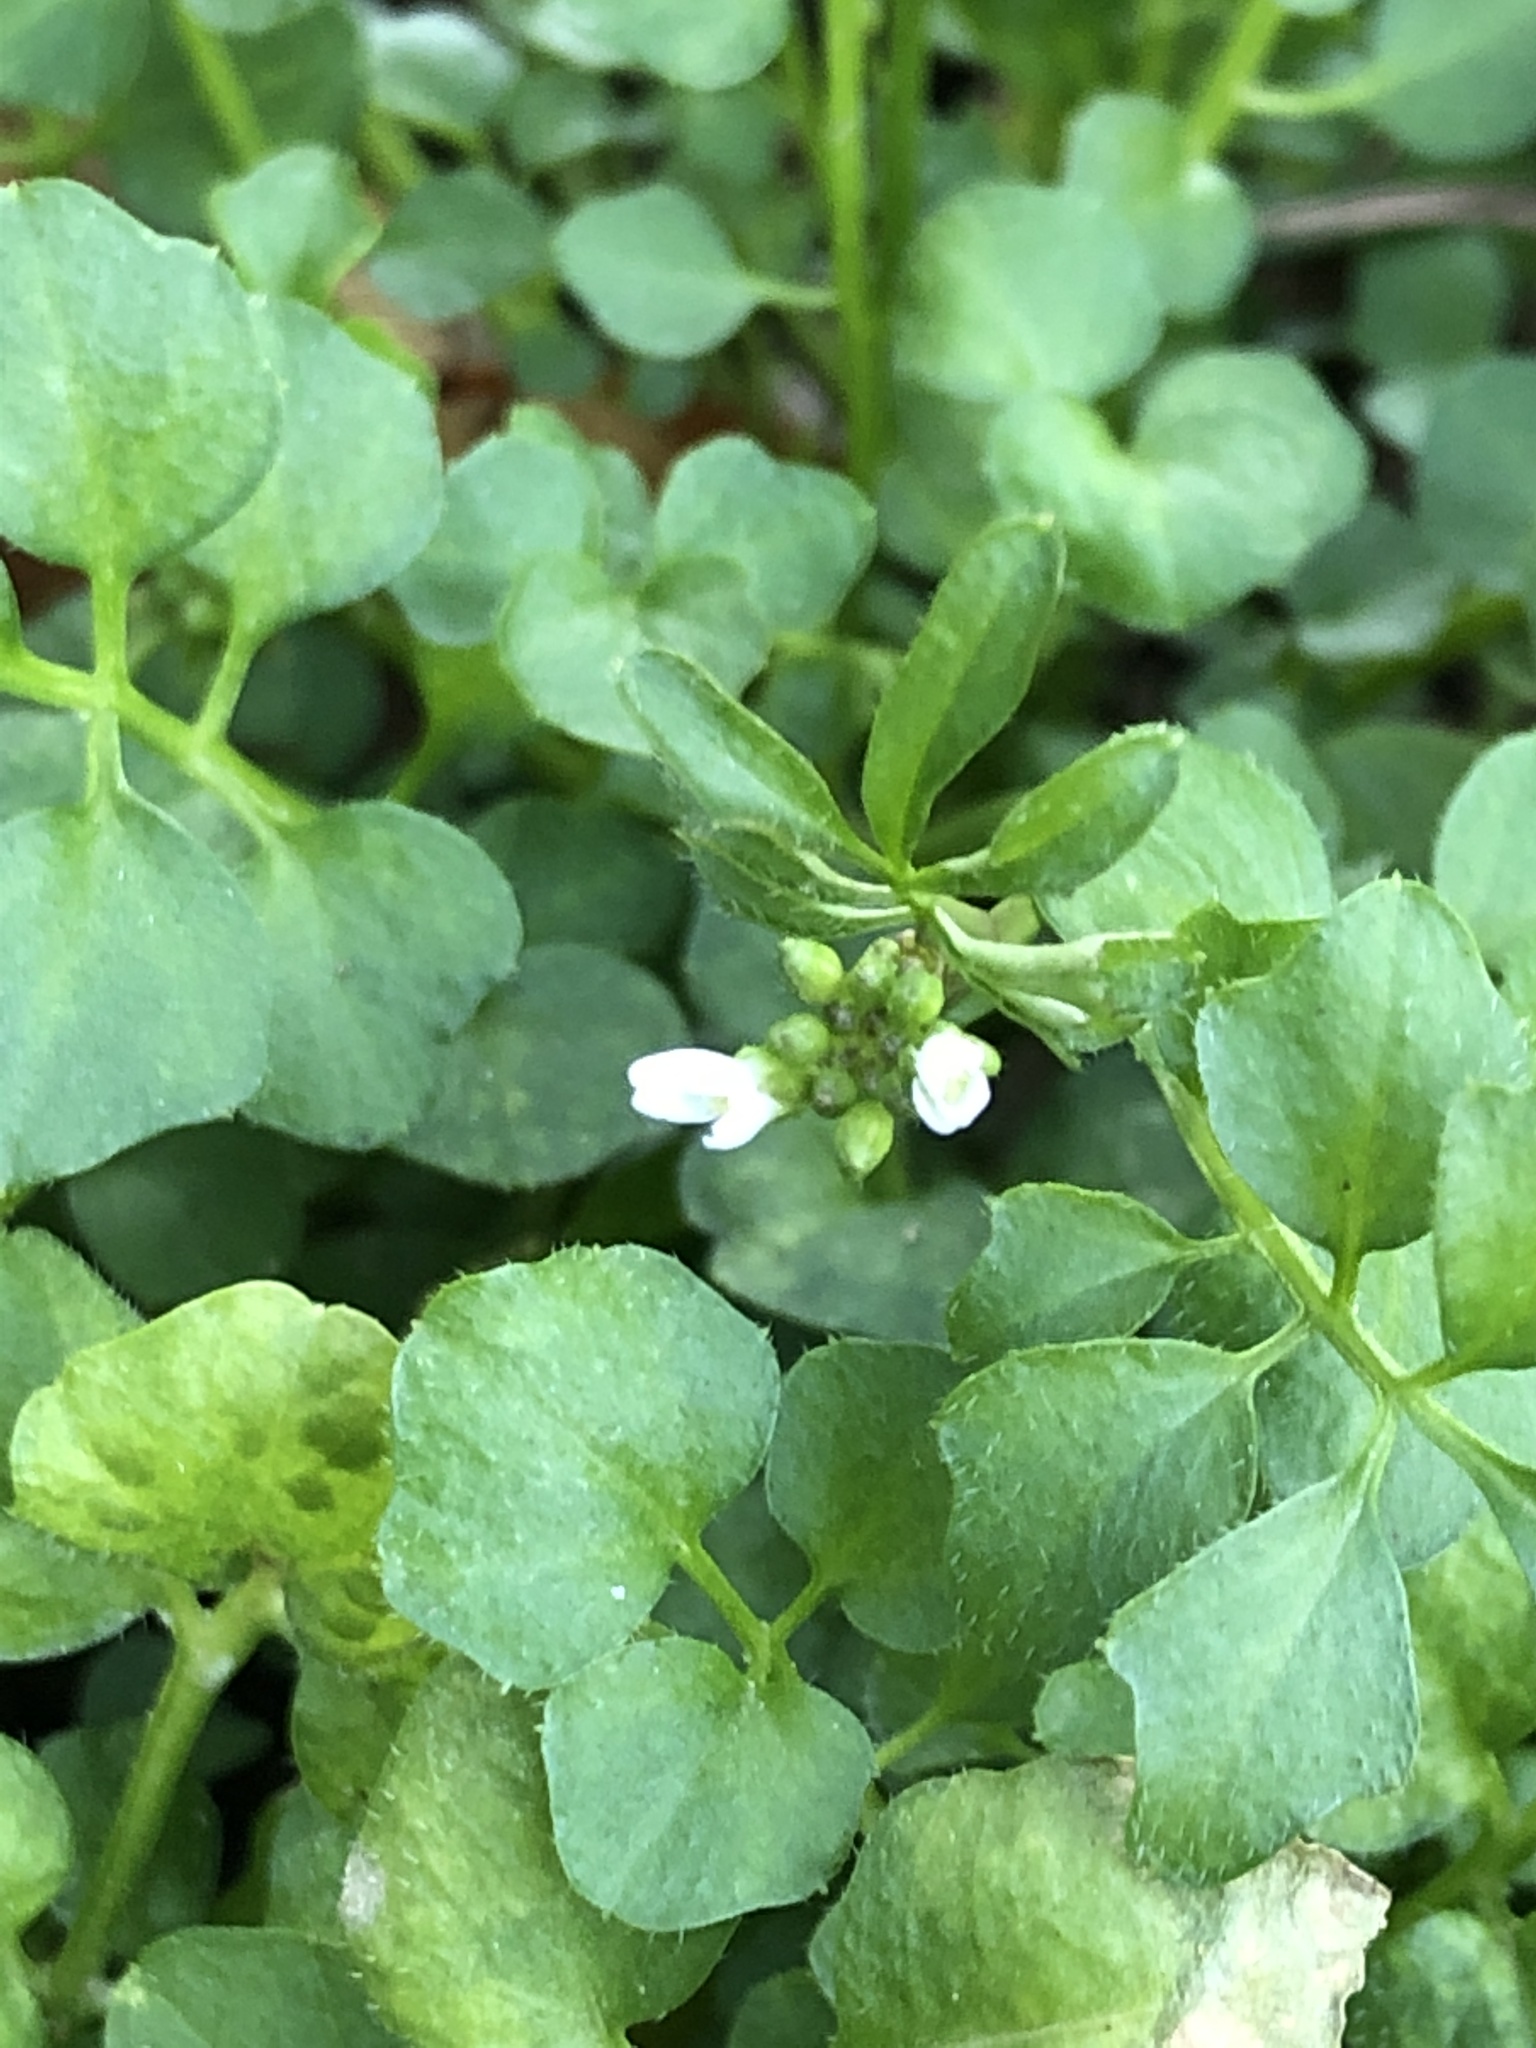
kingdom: Plantae
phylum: Tracheophyta
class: Magnoliopsida
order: Brassicales
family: Brassicaceae
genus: Cardamine
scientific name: Cardamine hirsuta
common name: Hairy bittercress
